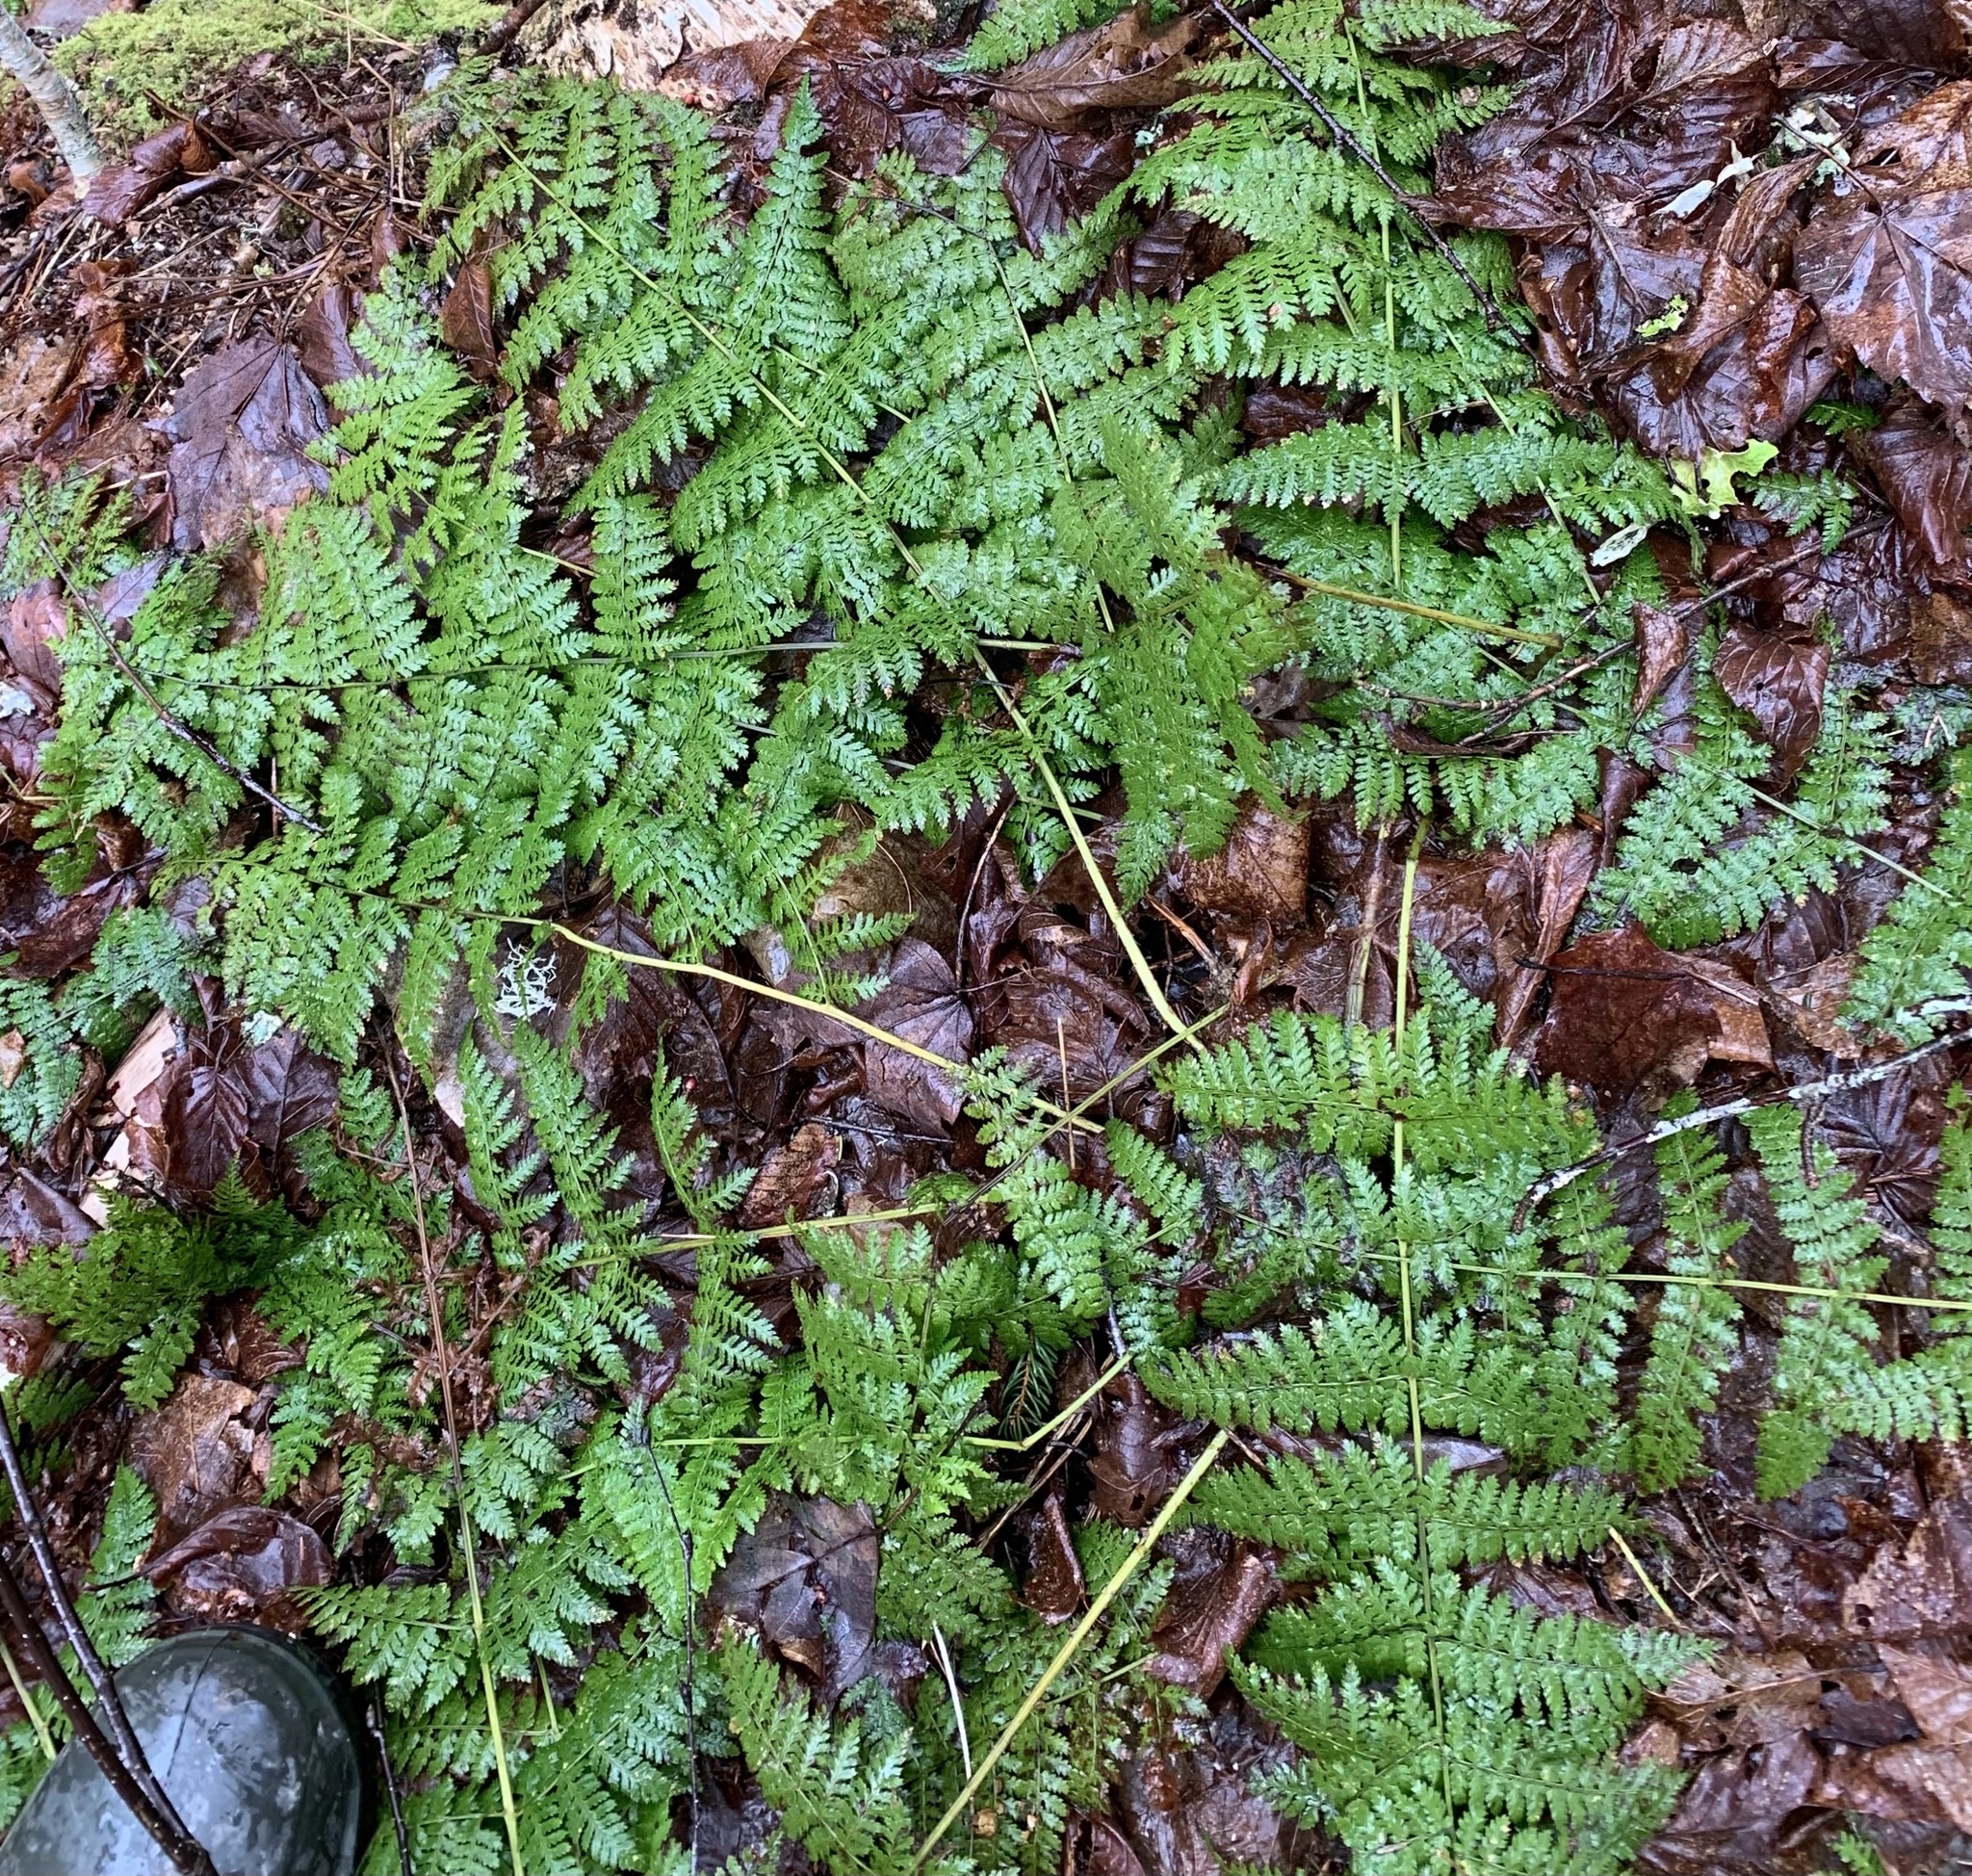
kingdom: Plantae
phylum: Tracheophyta
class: Polypodiopsida
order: Polypodiales
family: Dryopteridaceae
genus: Dryopteris
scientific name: Dryopteris intermedia
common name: Evergreen wood fern
